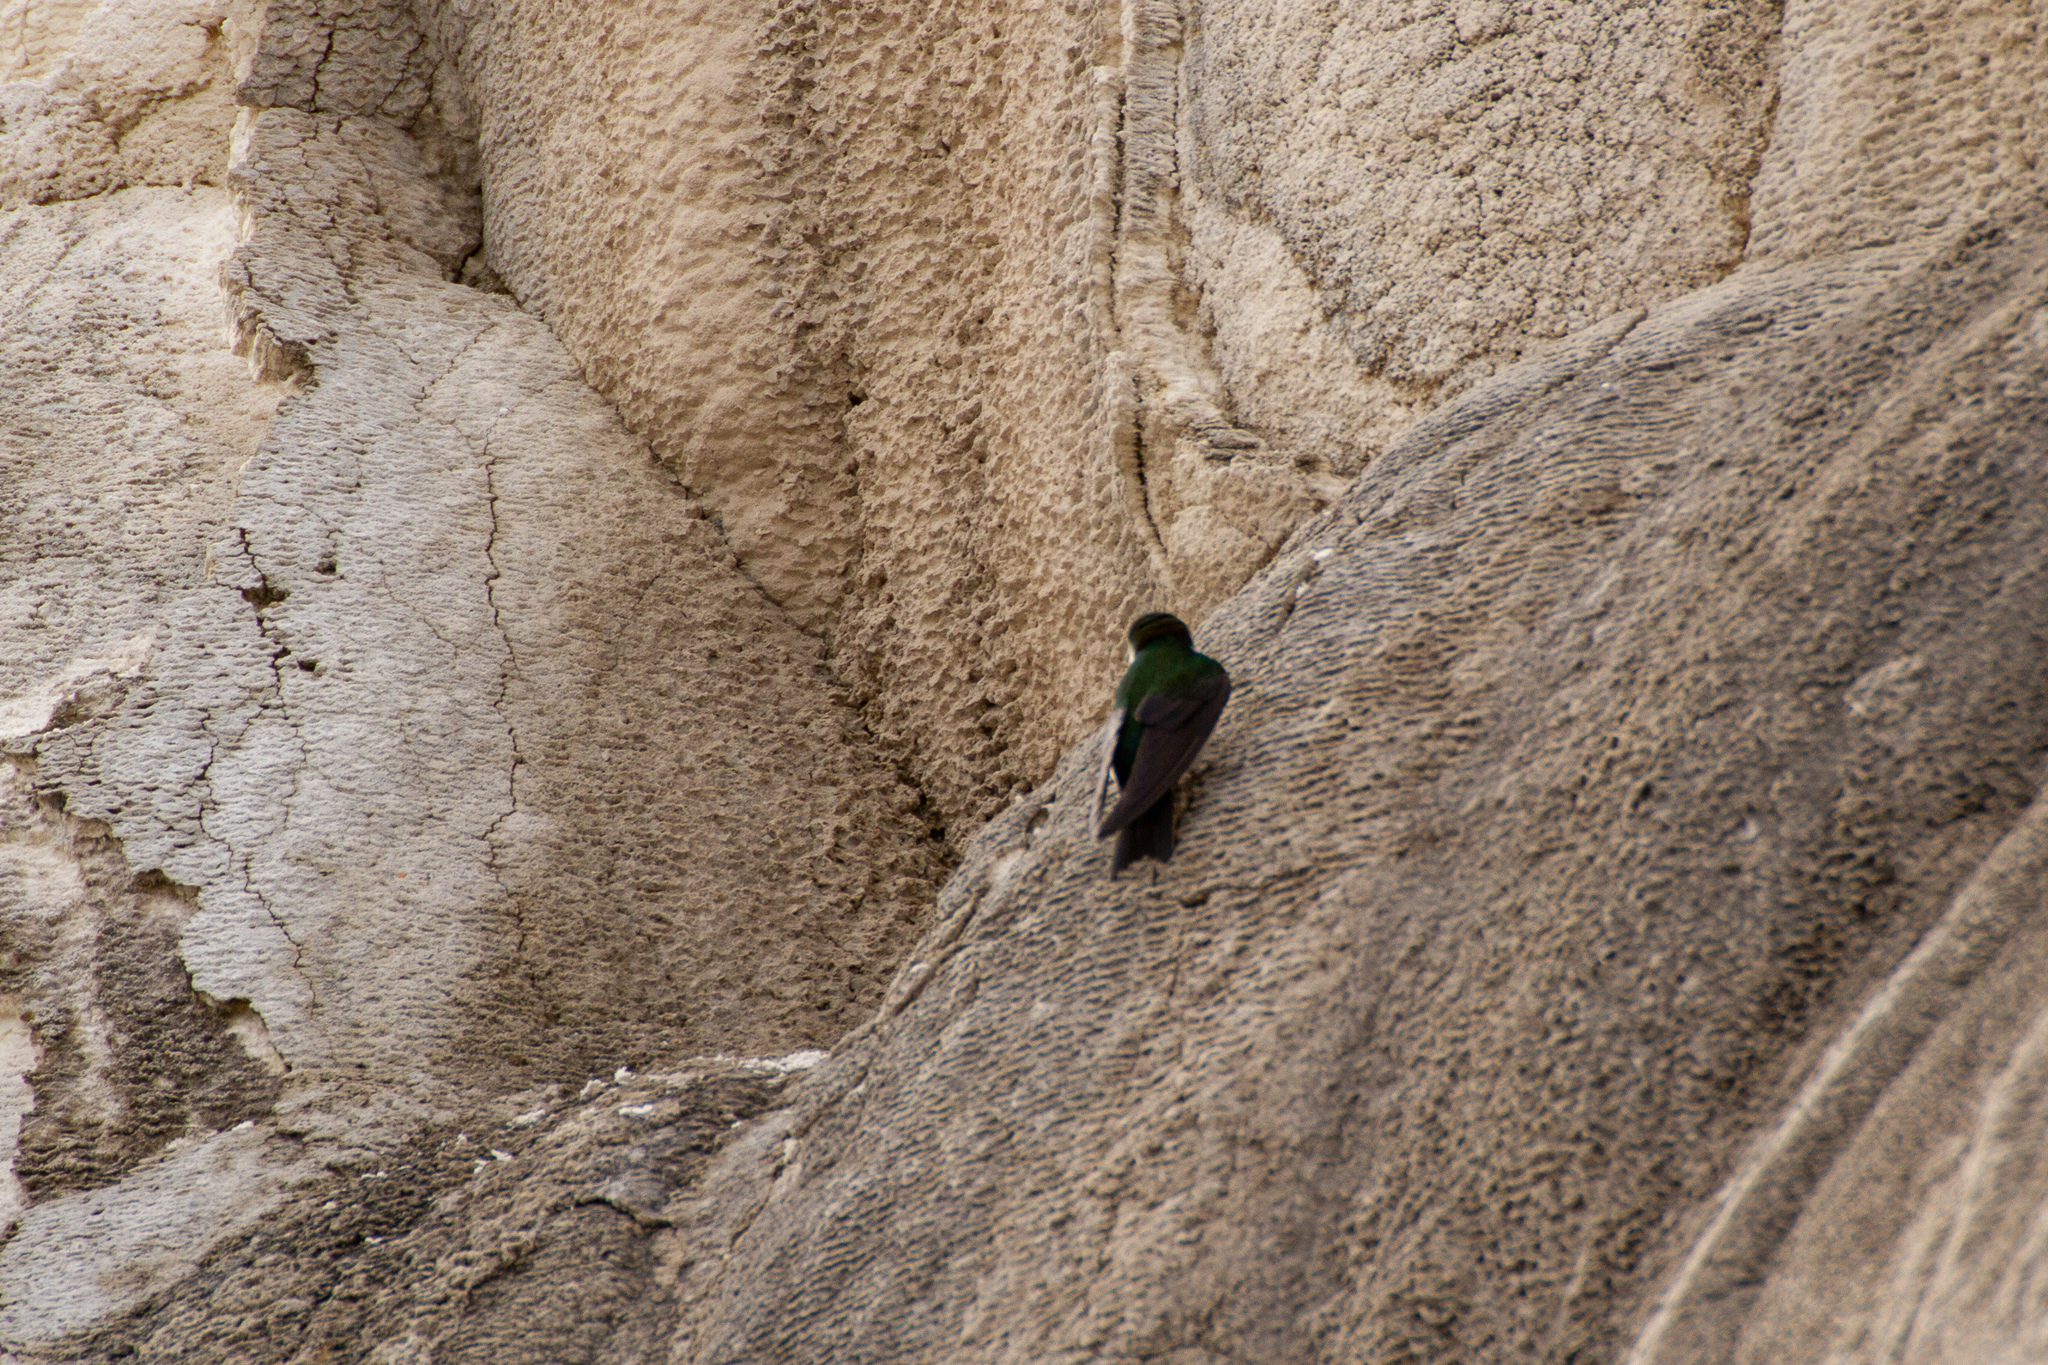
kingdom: Animalia
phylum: Chordata
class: Aves
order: Passeriformes
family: Hirundinidae
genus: Tachycineta
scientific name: Tachycineta thalassina
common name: Violet-green swallow
